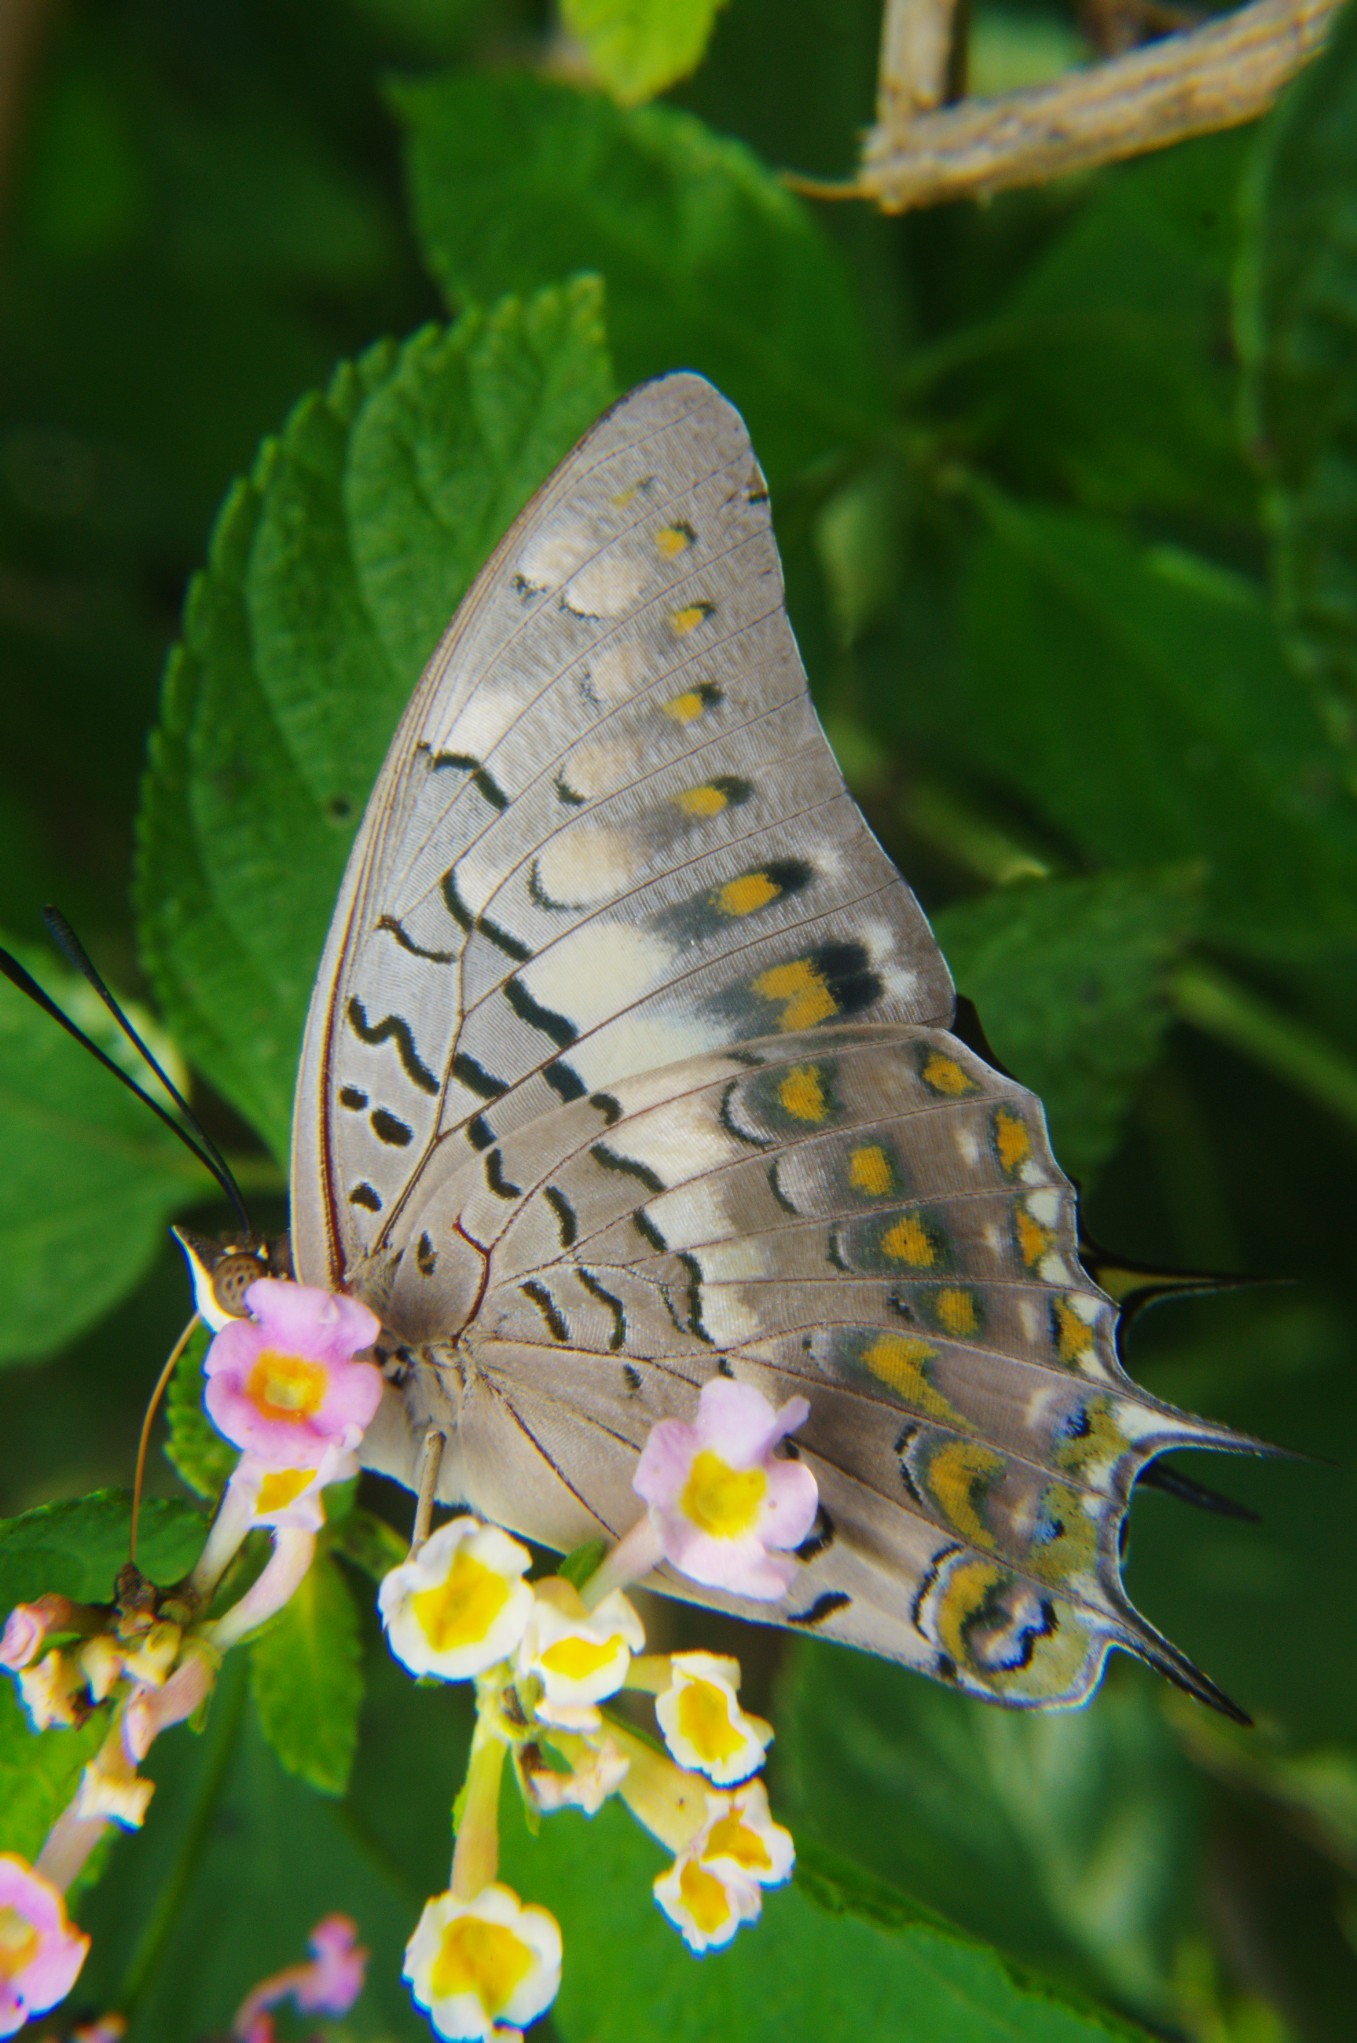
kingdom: Animalia
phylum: Arthropoda
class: Insecta
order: Lepidoptera
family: Nymphalidae
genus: Charaxes
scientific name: Charaxes solon
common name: Black rajah
